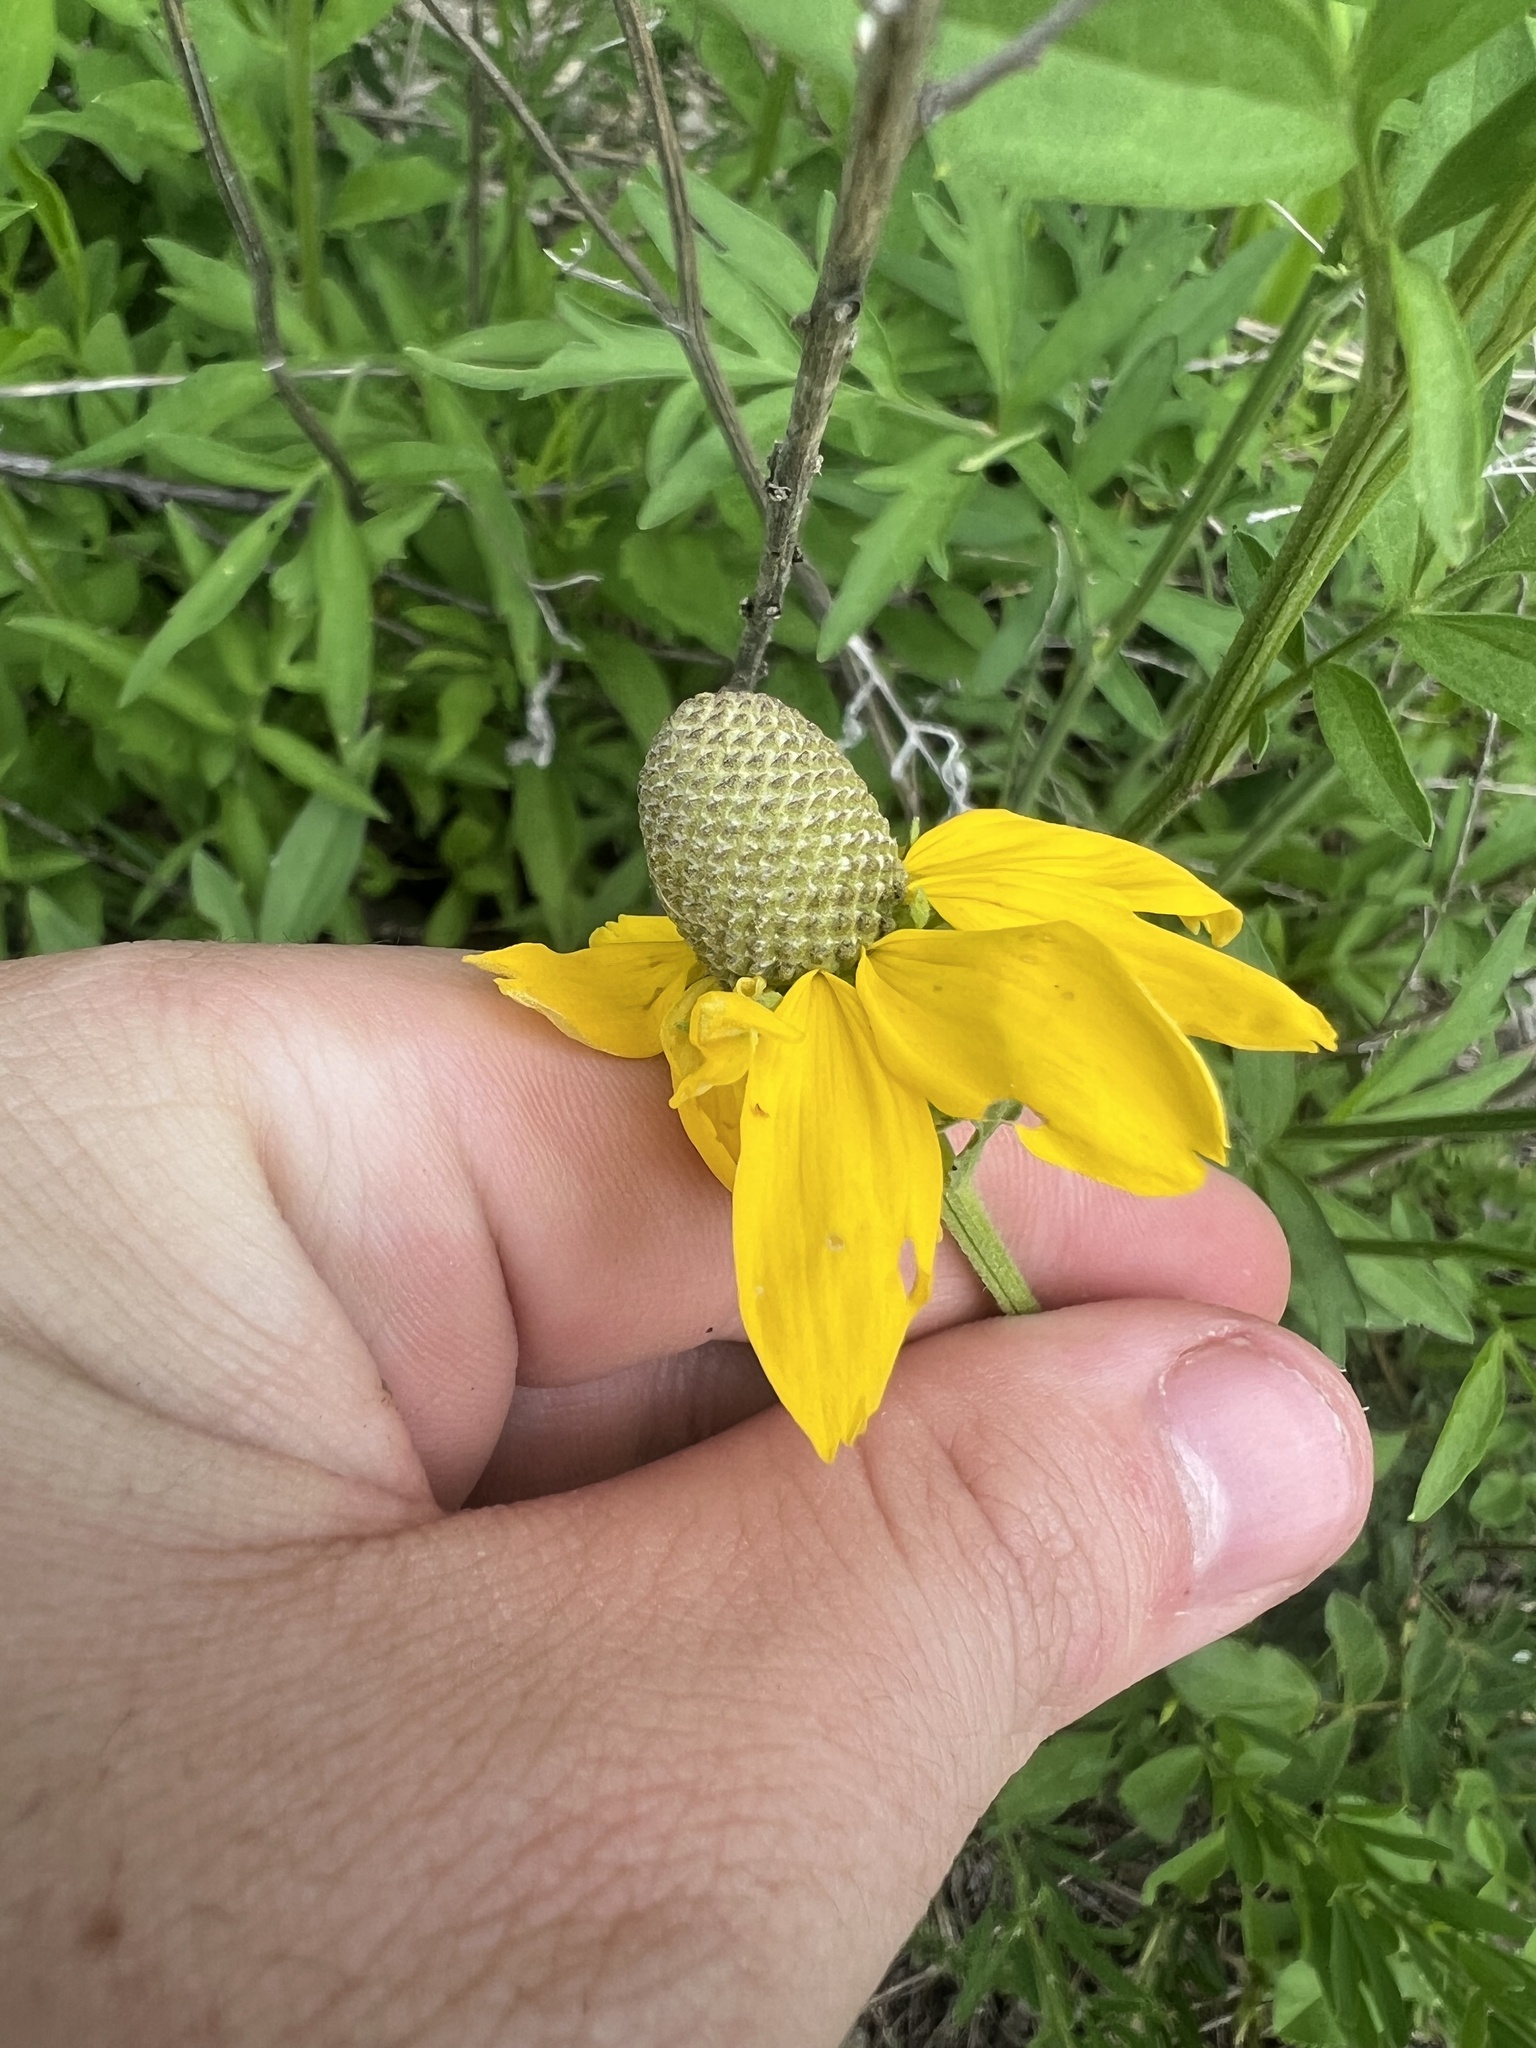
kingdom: Plantae
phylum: Tracheophyta
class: Magnoliopsida
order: Asterales
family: Asteraceae
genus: Ratibida
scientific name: Ratibida pinnata
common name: Drooping prairie-coneflower
